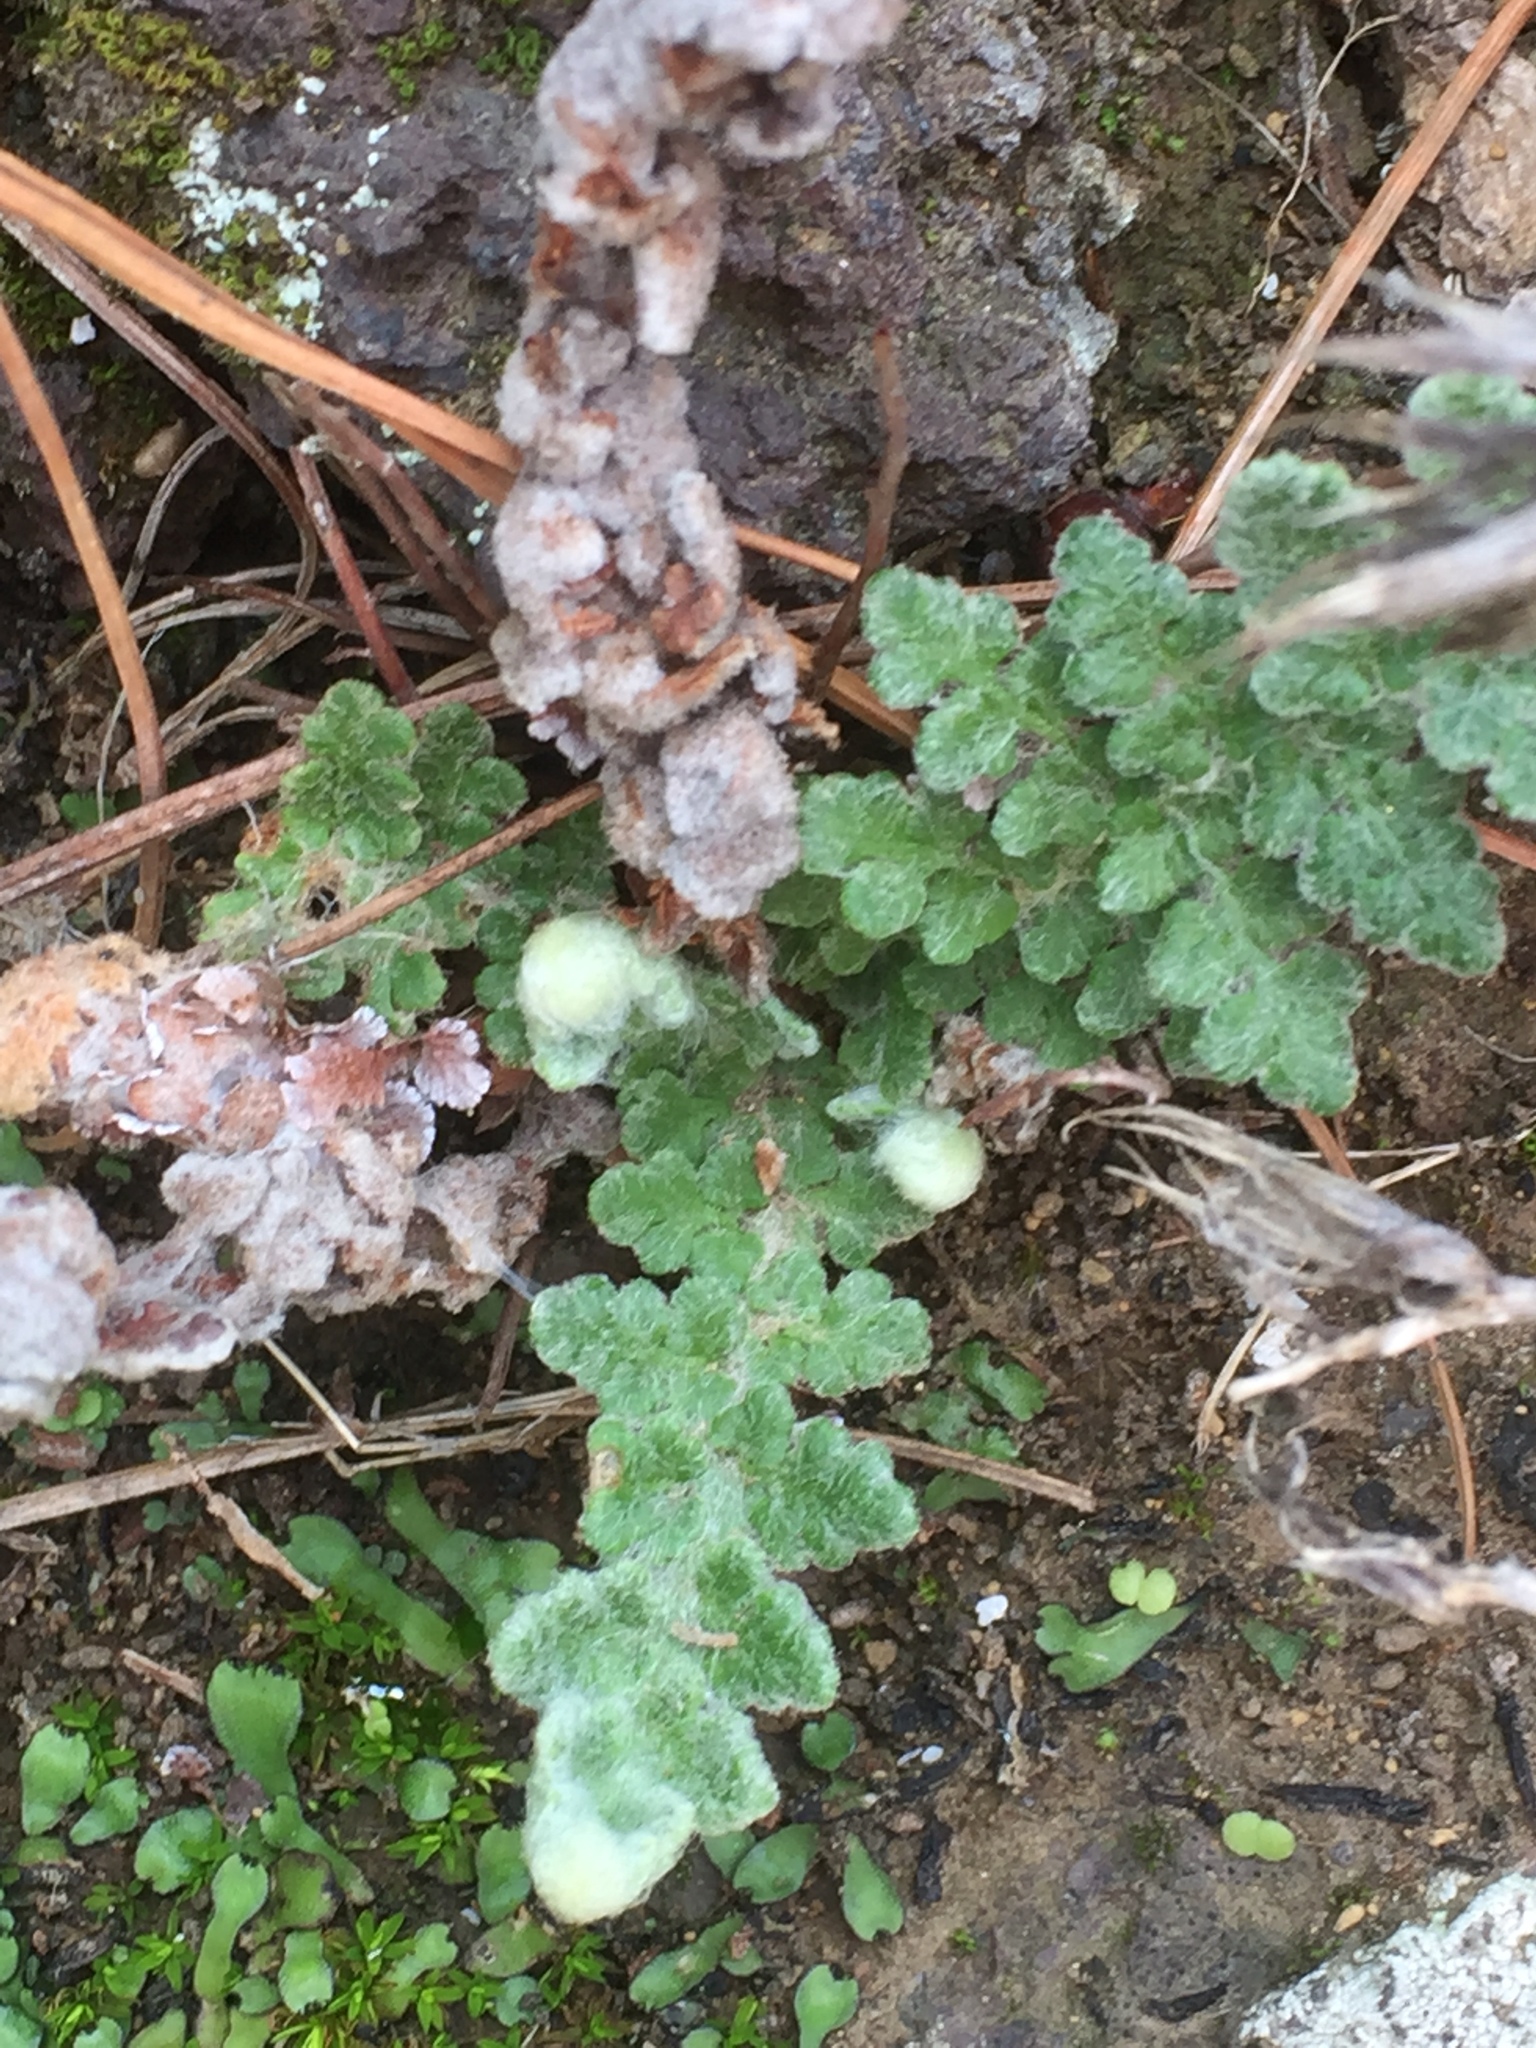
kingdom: Plantae
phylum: Tracheophyta
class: Polypodiopsida
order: Polypodiales
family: Pteridaceae
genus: Cosentinia
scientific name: Cosentinia vellea
